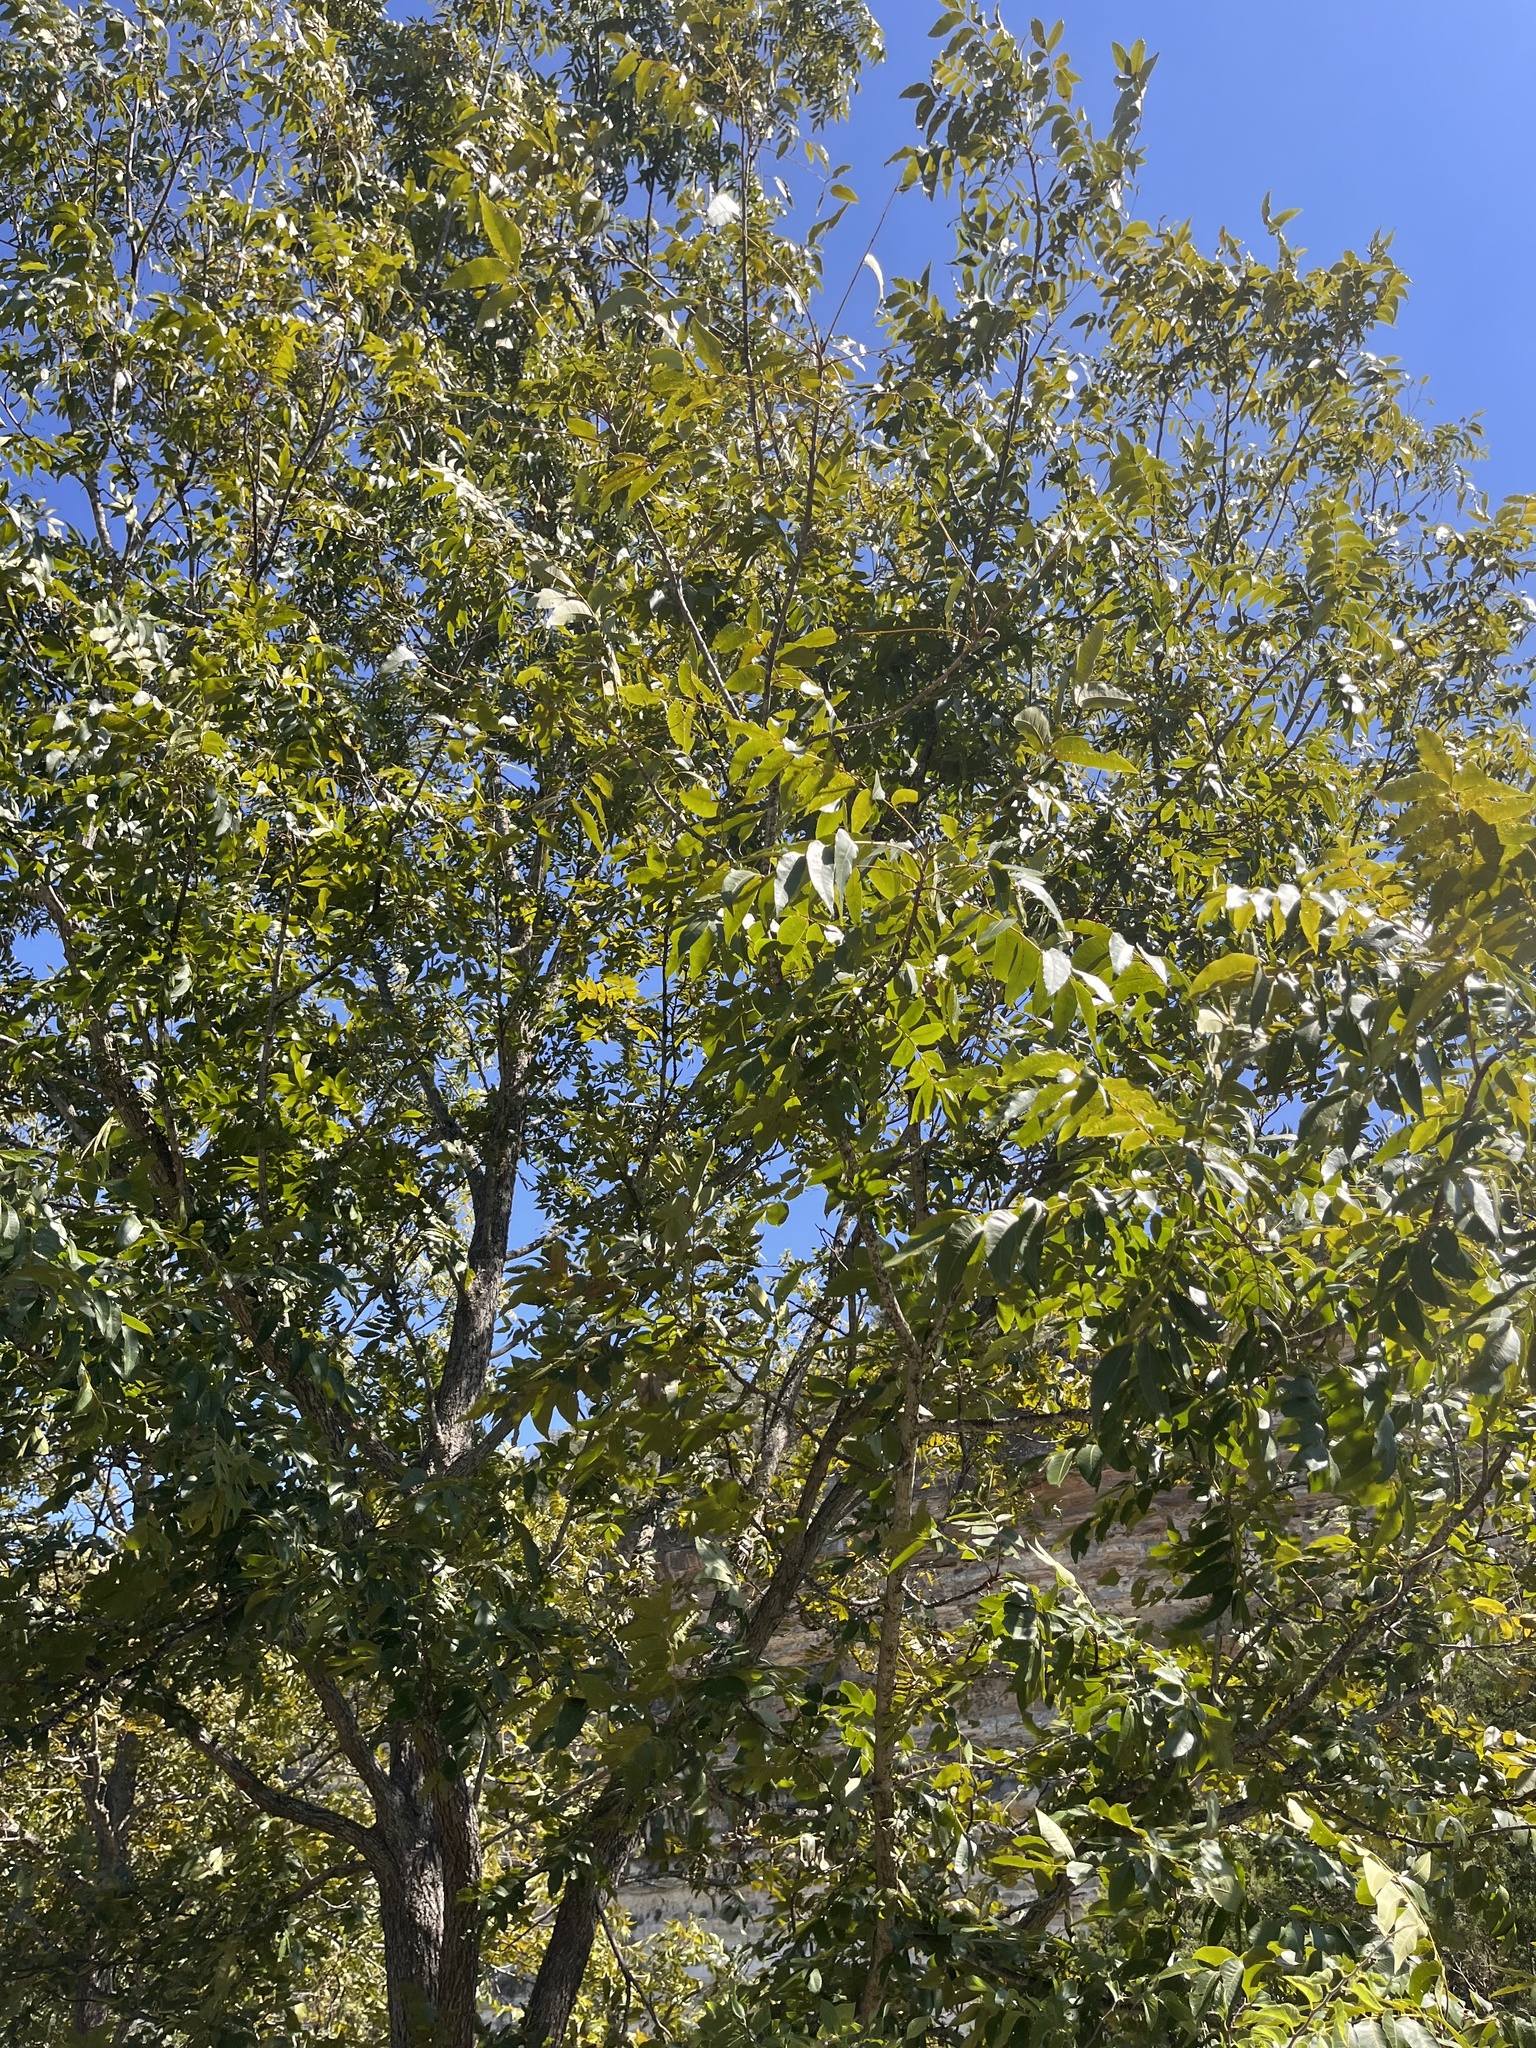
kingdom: Plantae
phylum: Tracheophyta
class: Magnoliopsida
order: Fagales
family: Juglandaceae
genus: Carya
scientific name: Carya illinoinensis
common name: Pecan
